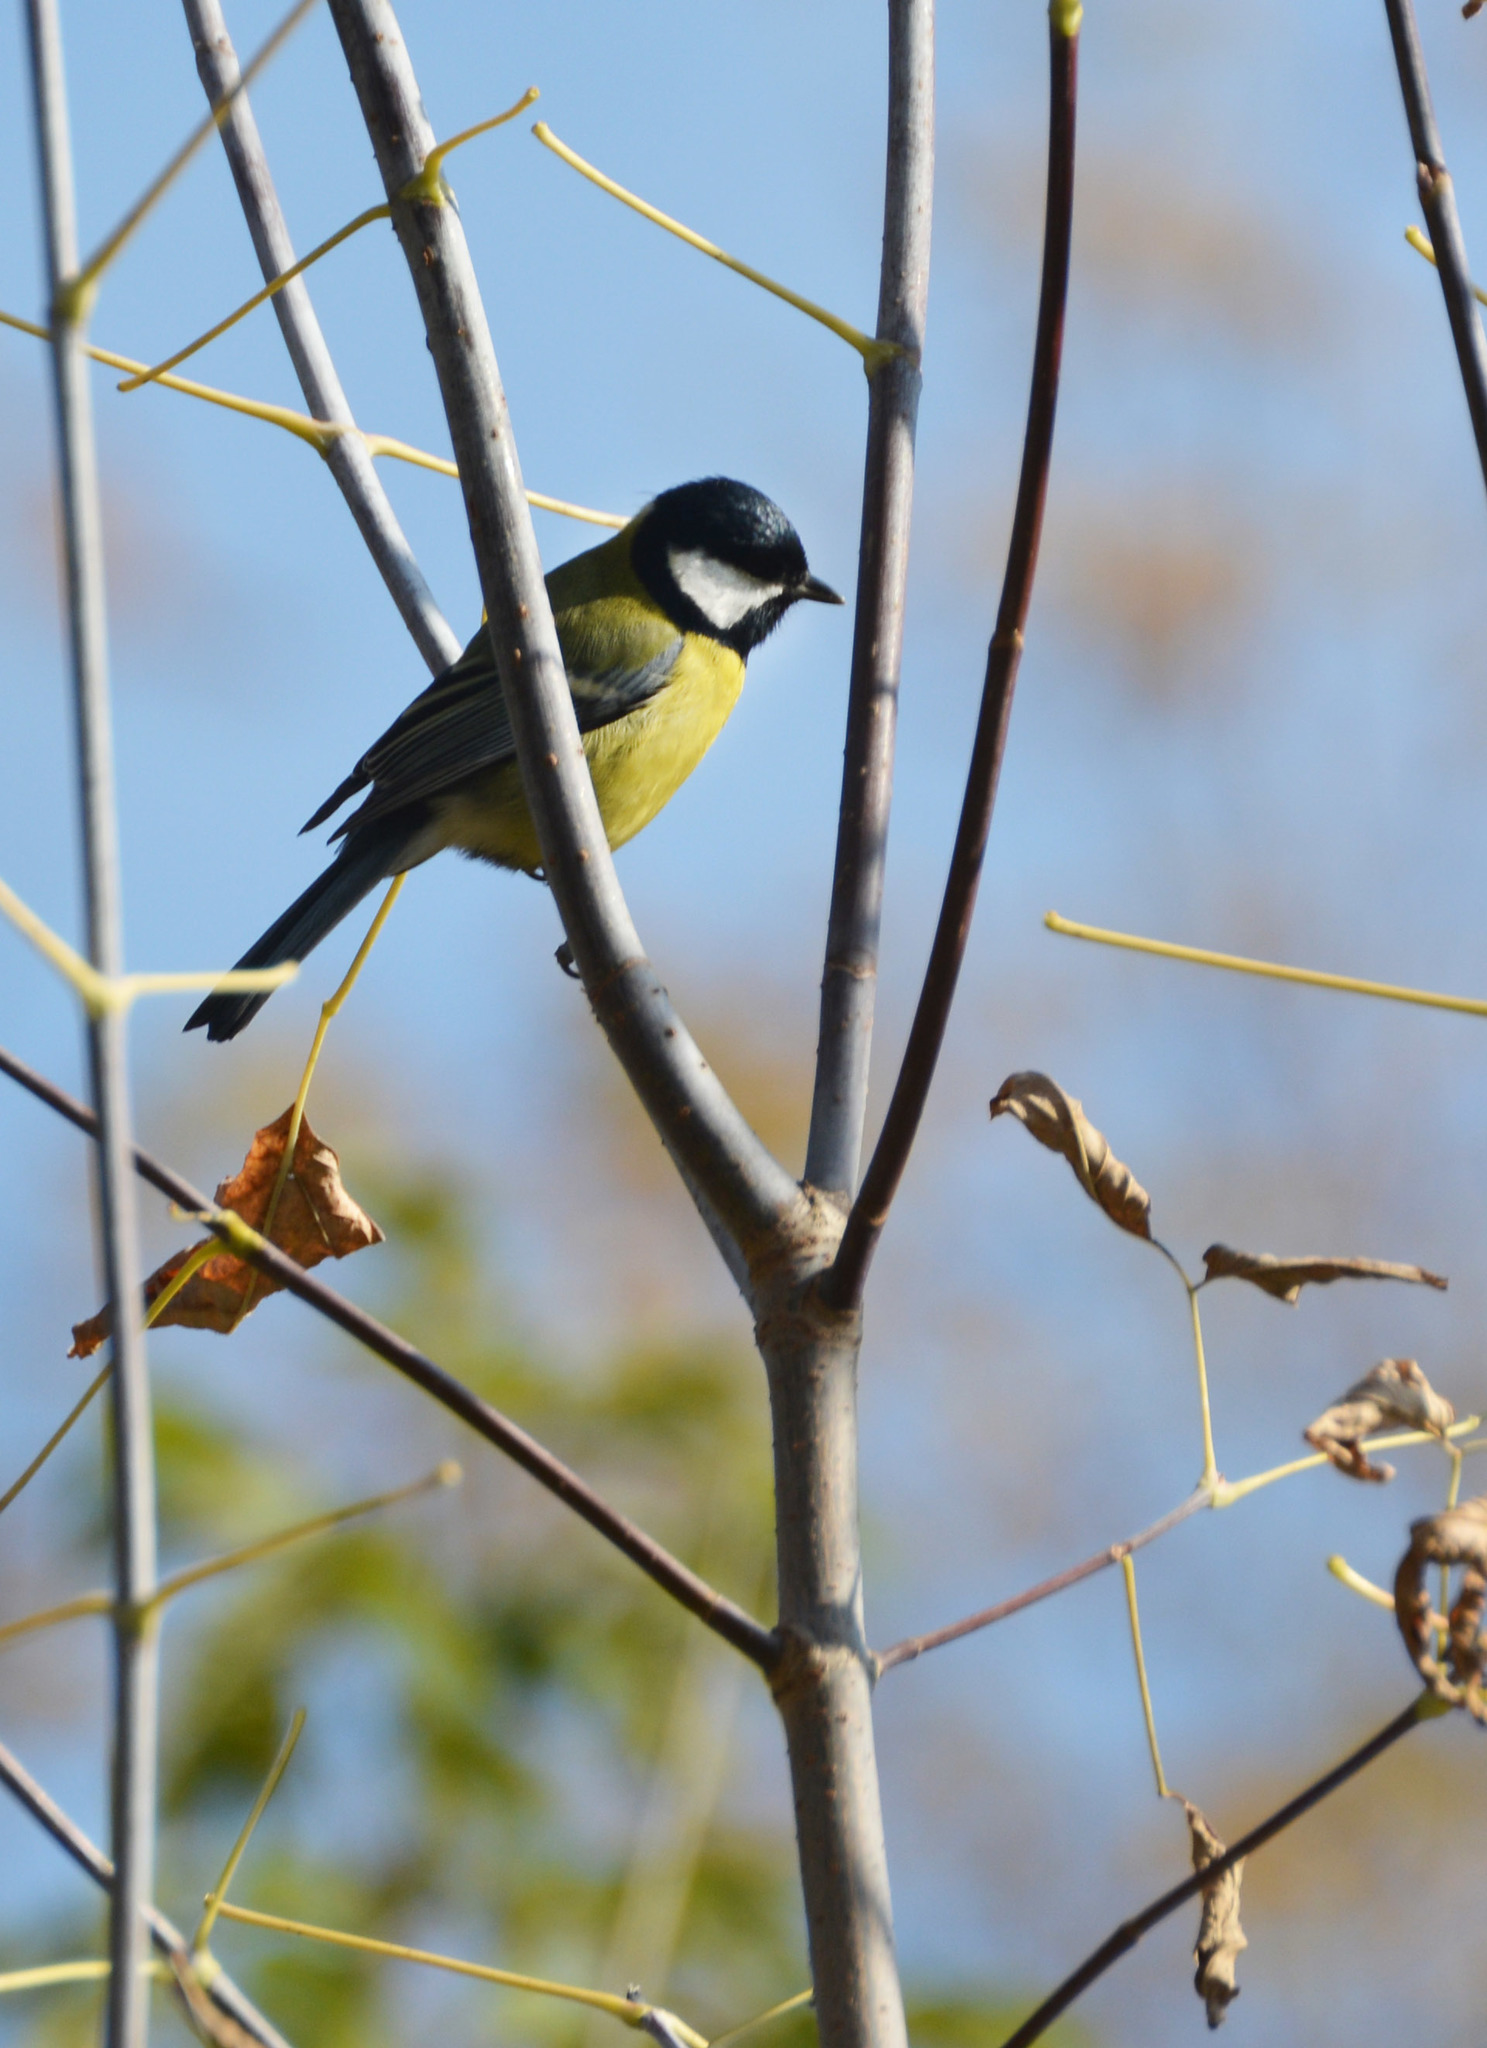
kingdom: Animalia
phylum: Chordata
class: Aves
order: Passeriformes
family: Paridae
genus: Parus
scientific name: Parus major
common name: Great tit
